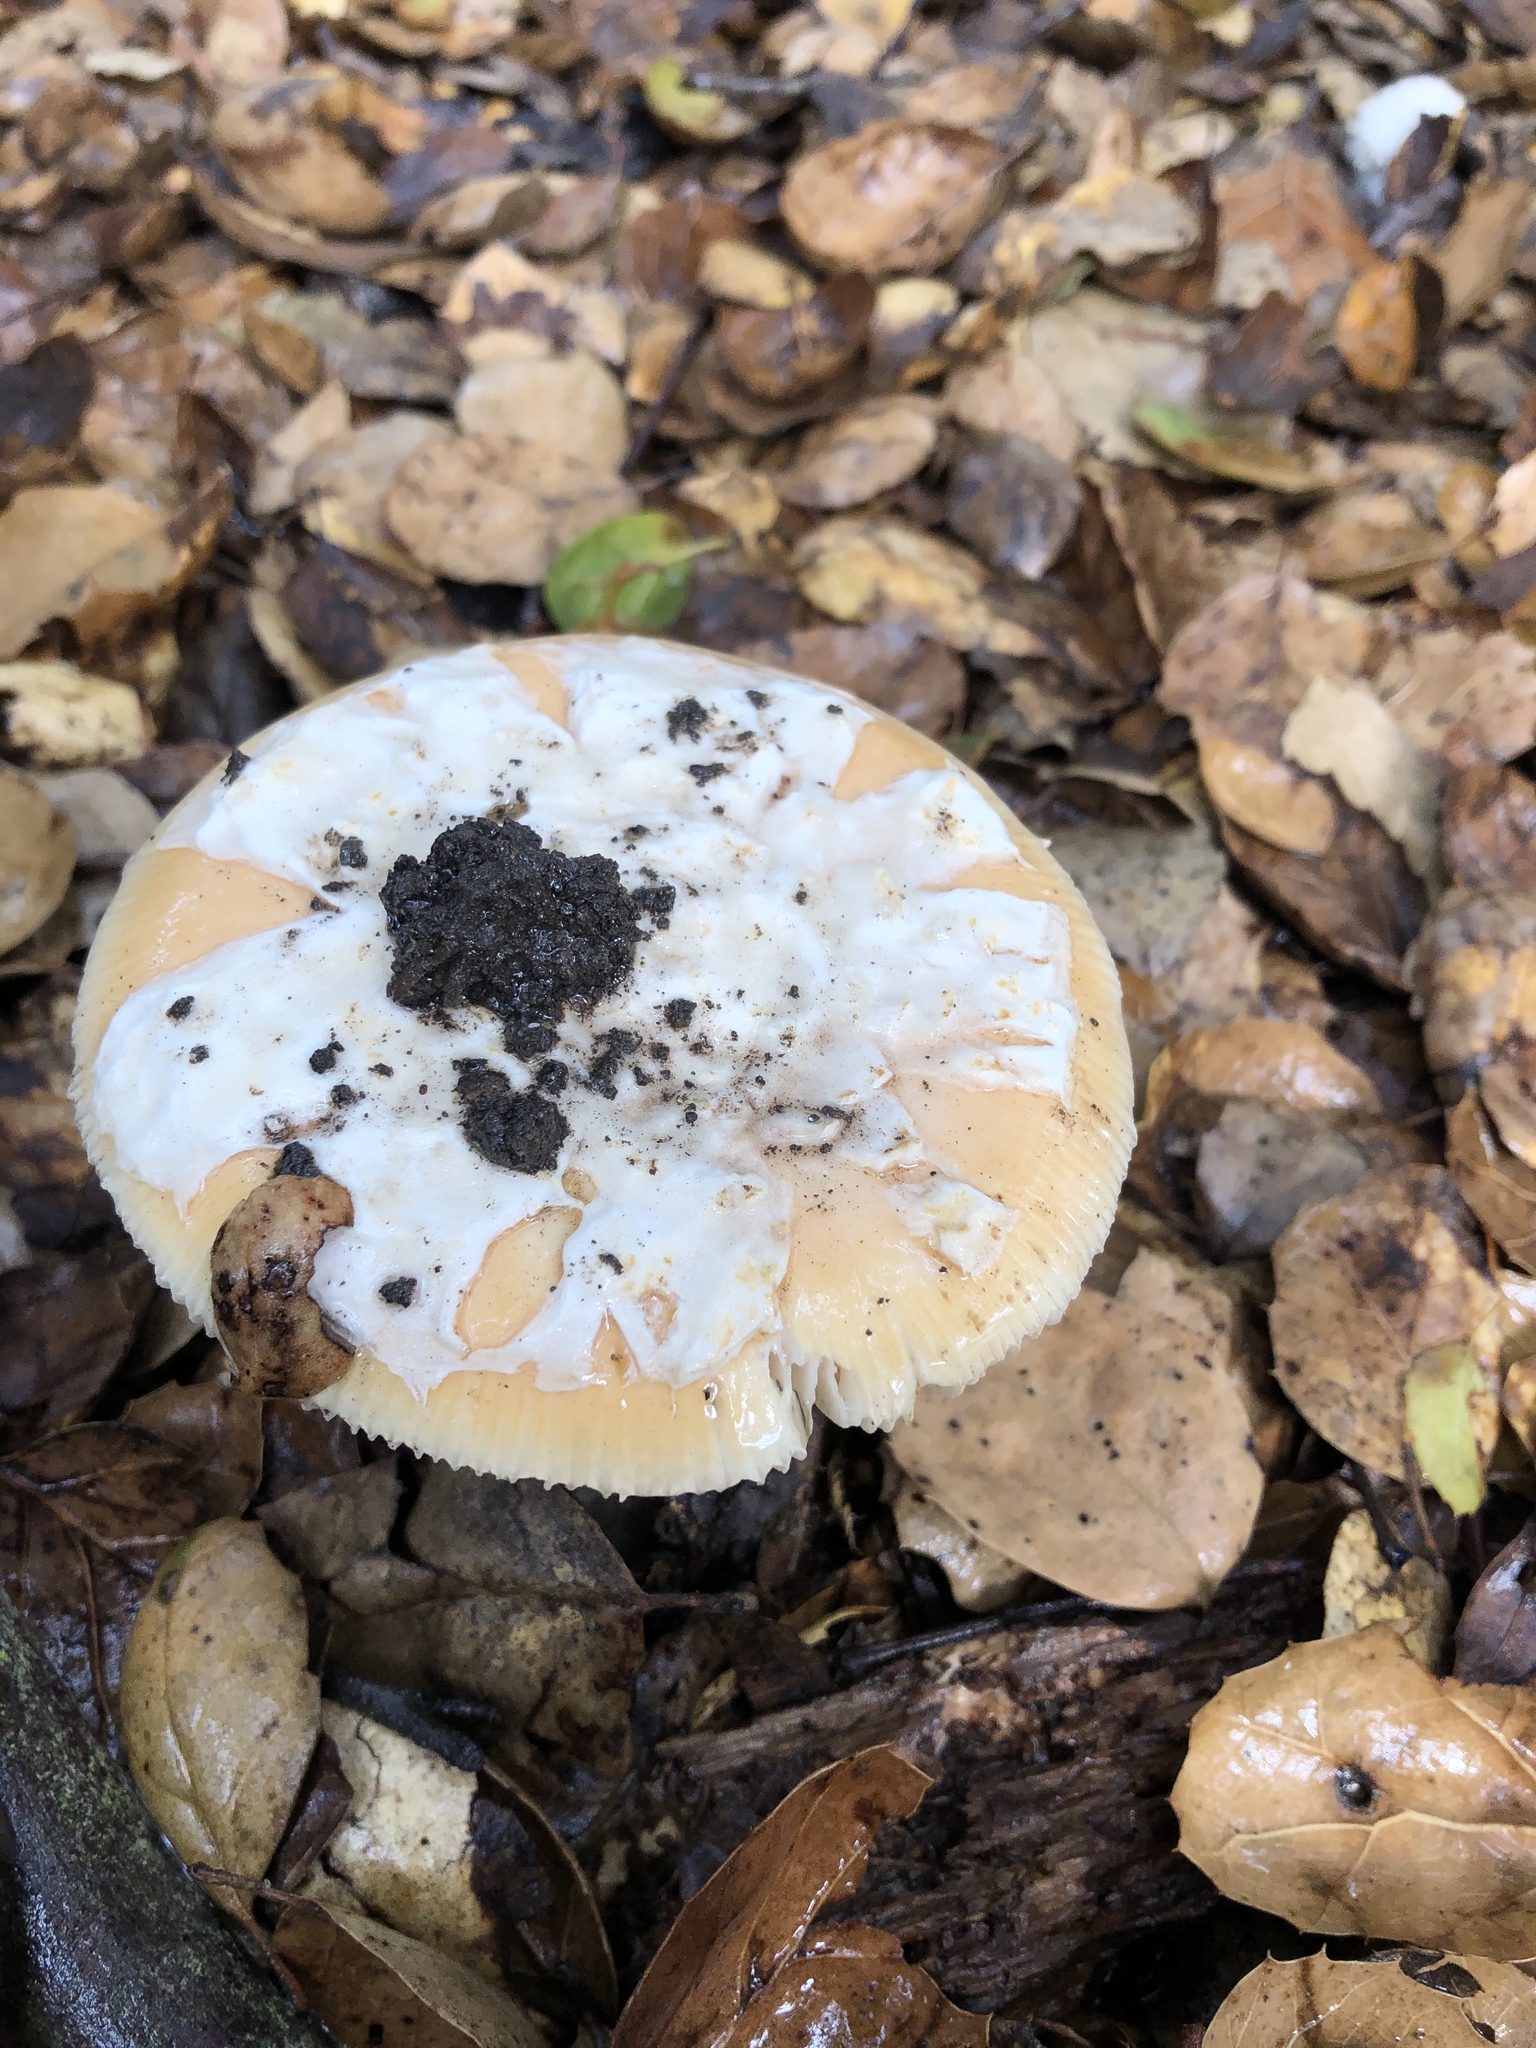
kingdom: Fungi
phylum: Basidiomycota
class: Agaricomycetes
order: Agaricales
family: Amanitaceae
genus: Amanita
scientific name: Amanita velosa
